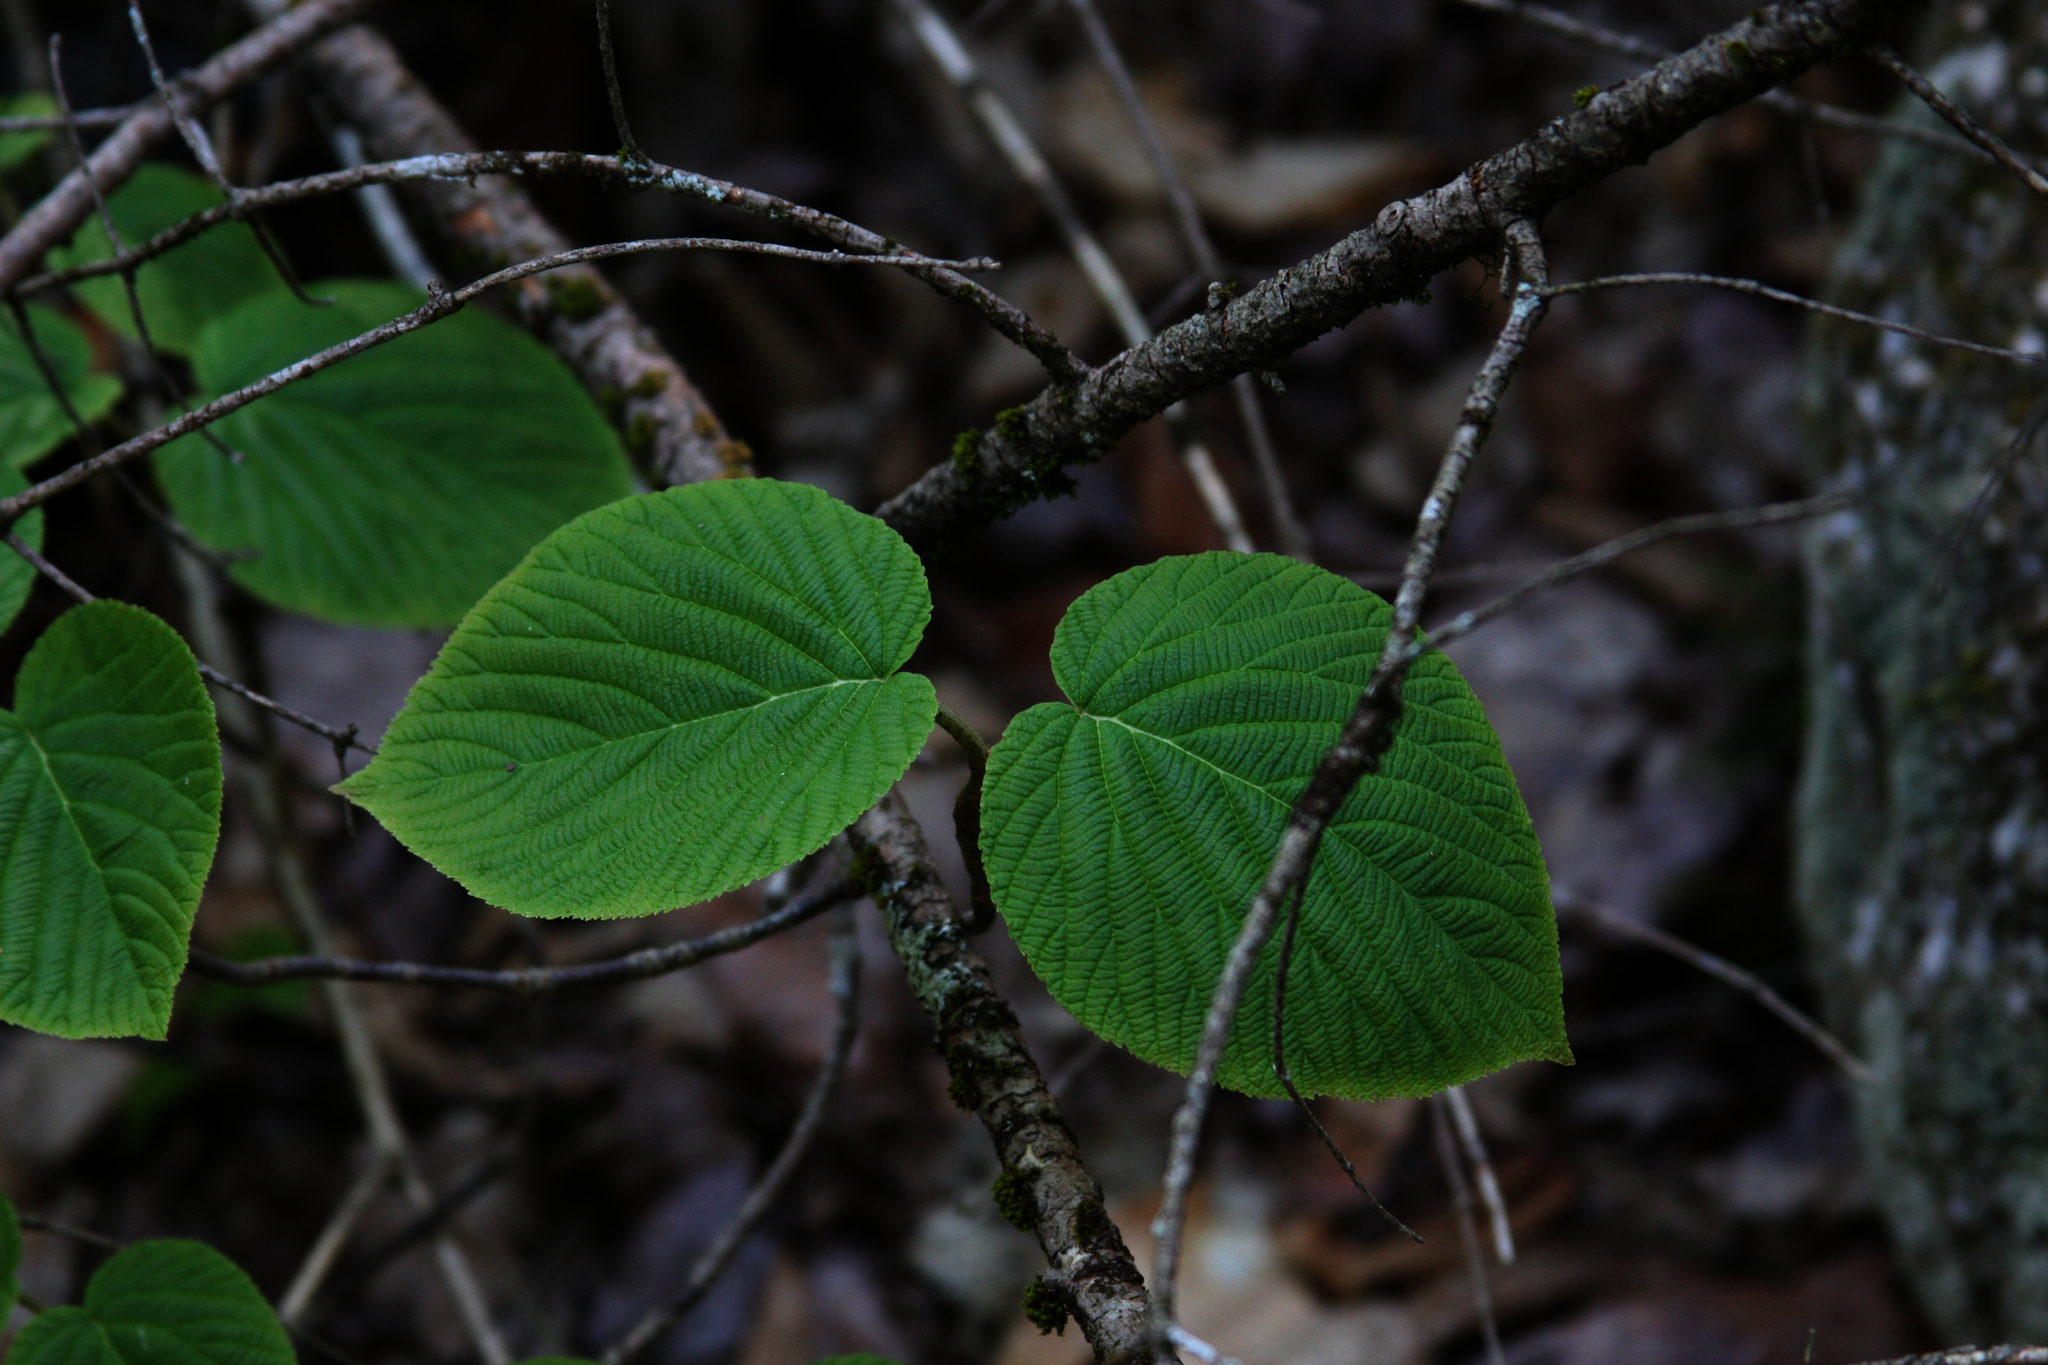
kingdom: Plantae
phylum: Tracheophyta
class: Magnoliopsida
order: Dipsacales
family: Viburnaceae
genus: Viburnum
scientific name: Viburnum lantanoides
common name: Hobblebush
